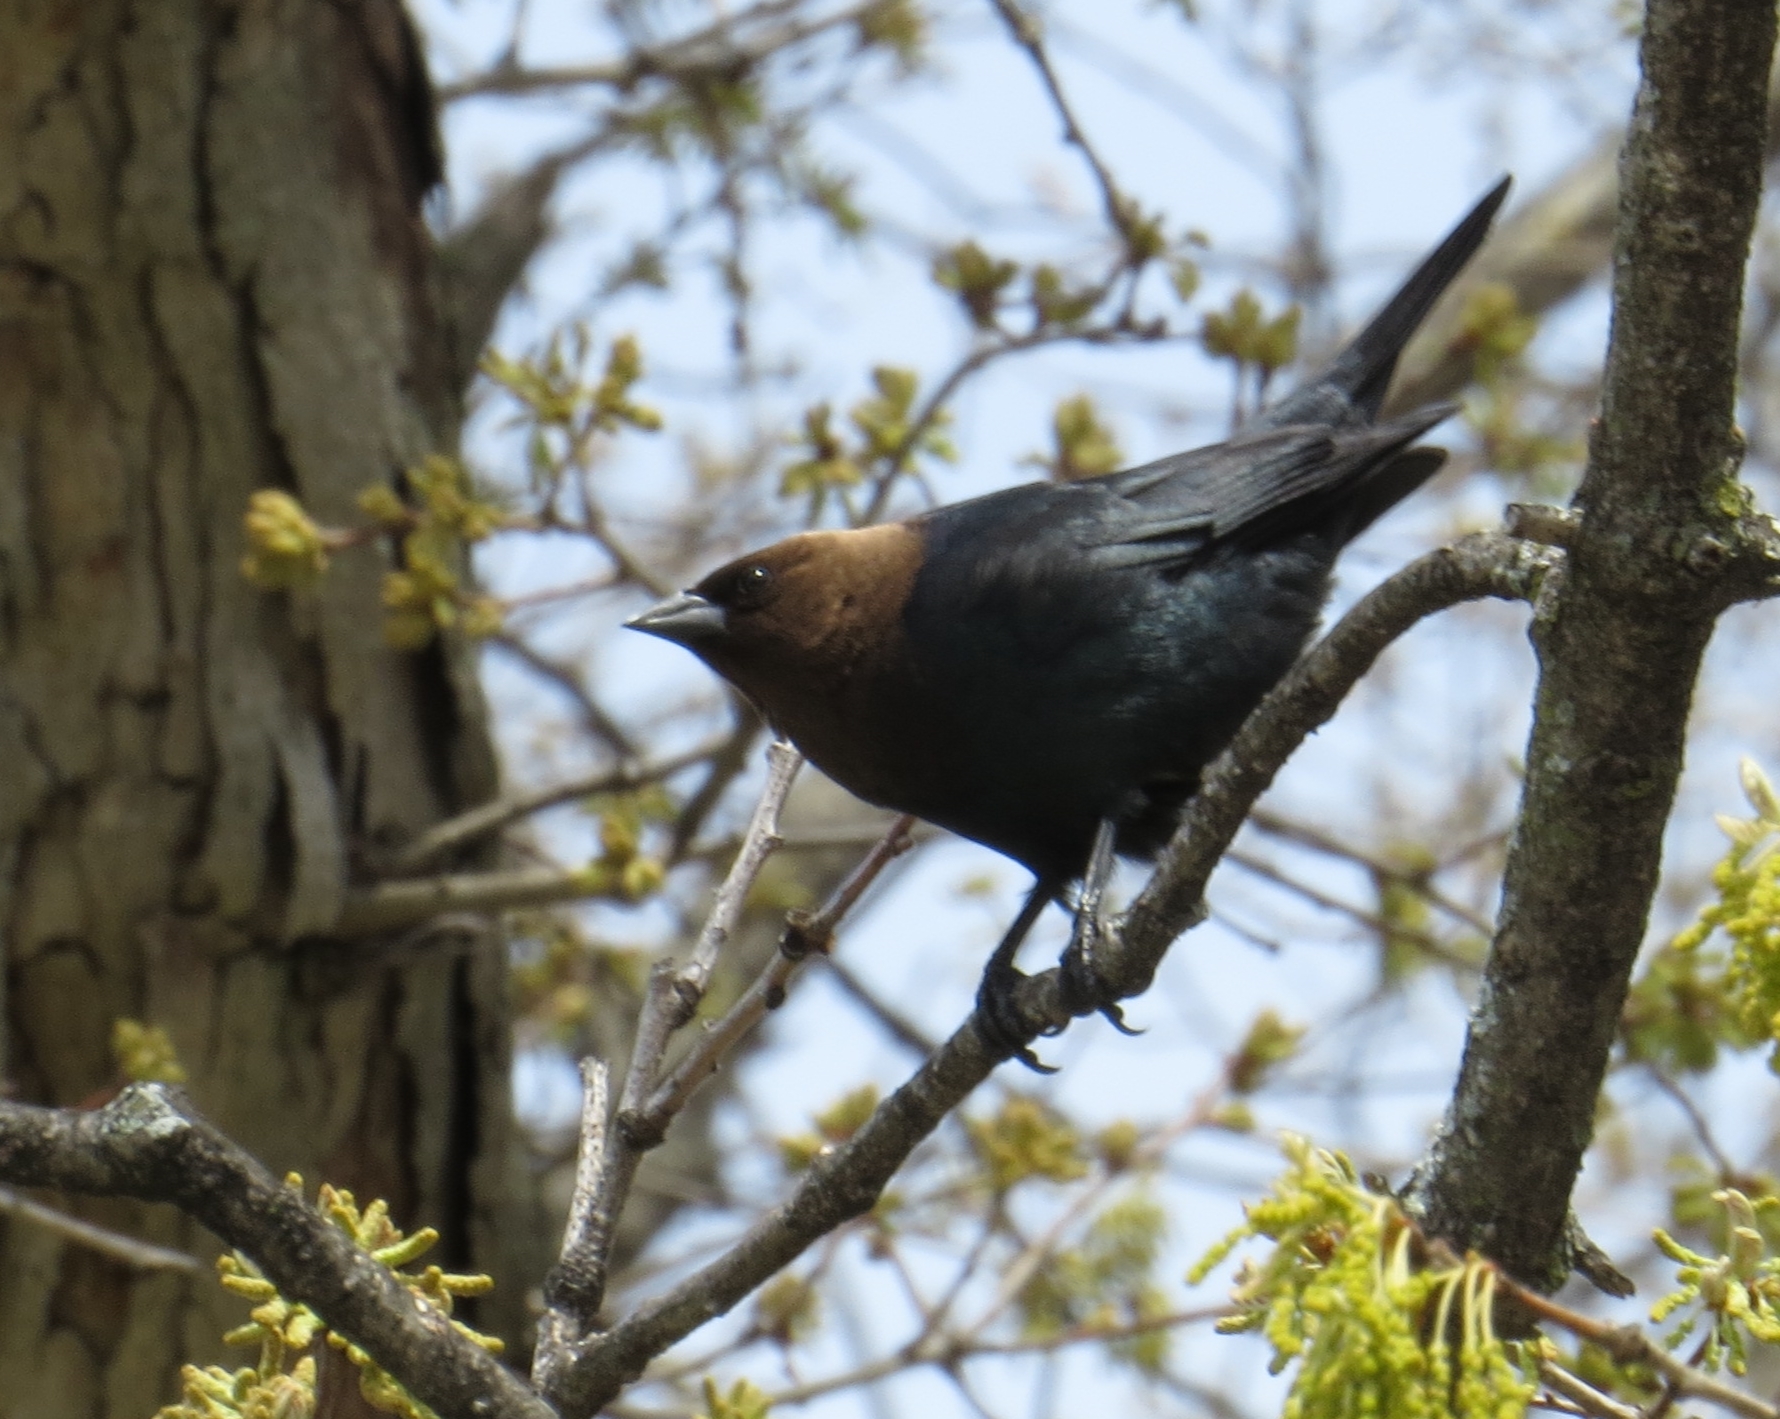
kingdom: Animalia
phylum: Chordata
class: Aves
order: Passeriformes
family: Icteridae
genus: Molothrus
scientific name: Molothrus ater
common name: Brown-headed cowbird
